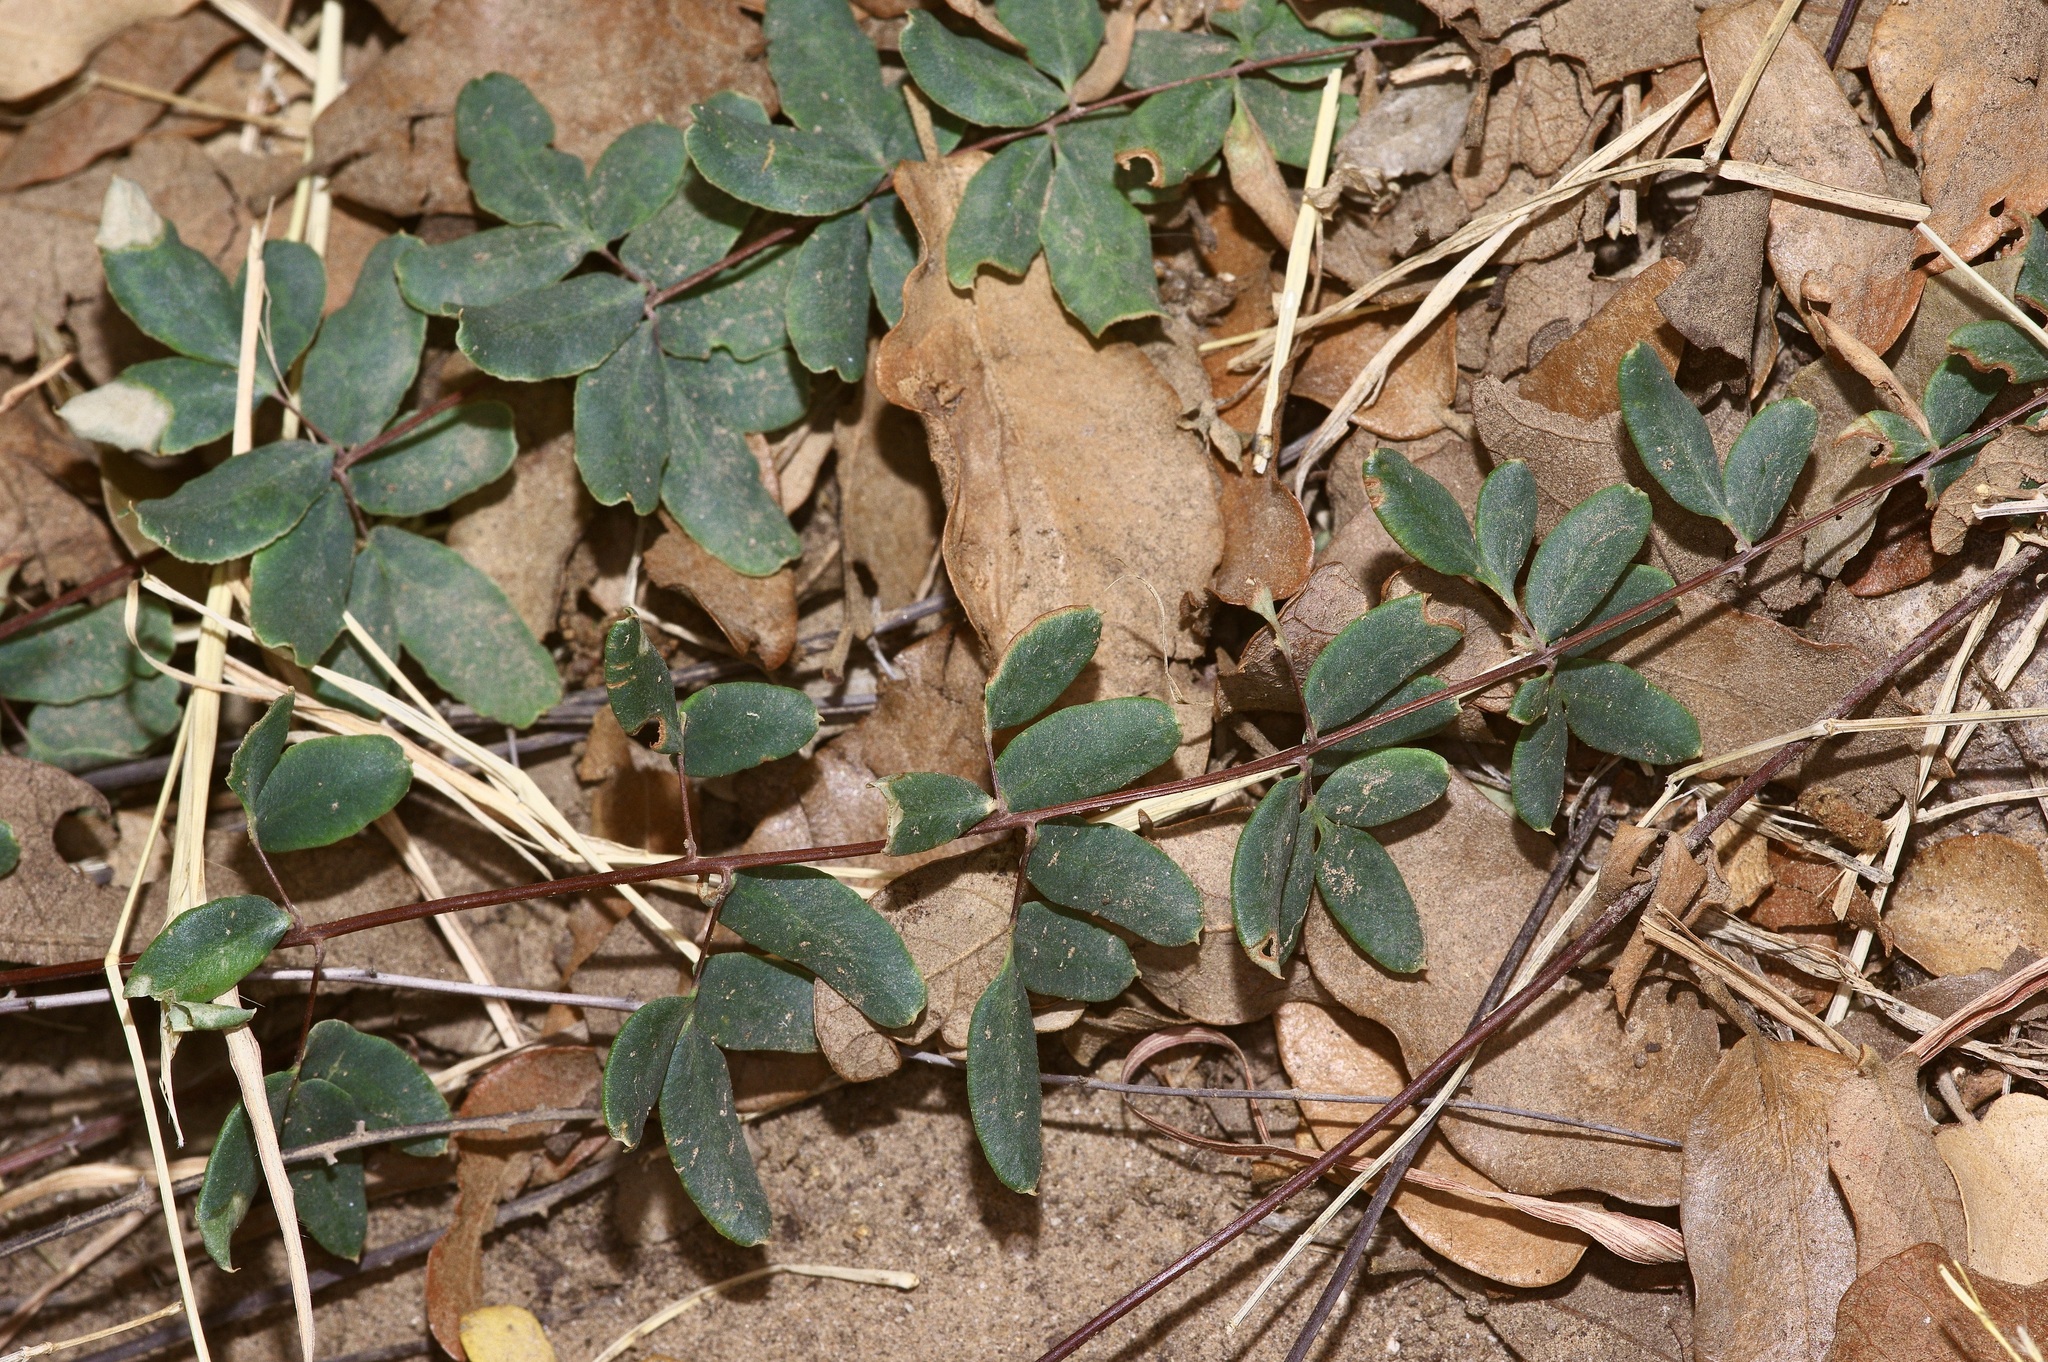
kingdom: Plantae
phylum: Tracheophyta
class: Polypodiopsida
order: Polypodiales
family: Pteridaceae
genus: Pellaea
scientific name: Pellaea wrightiana
